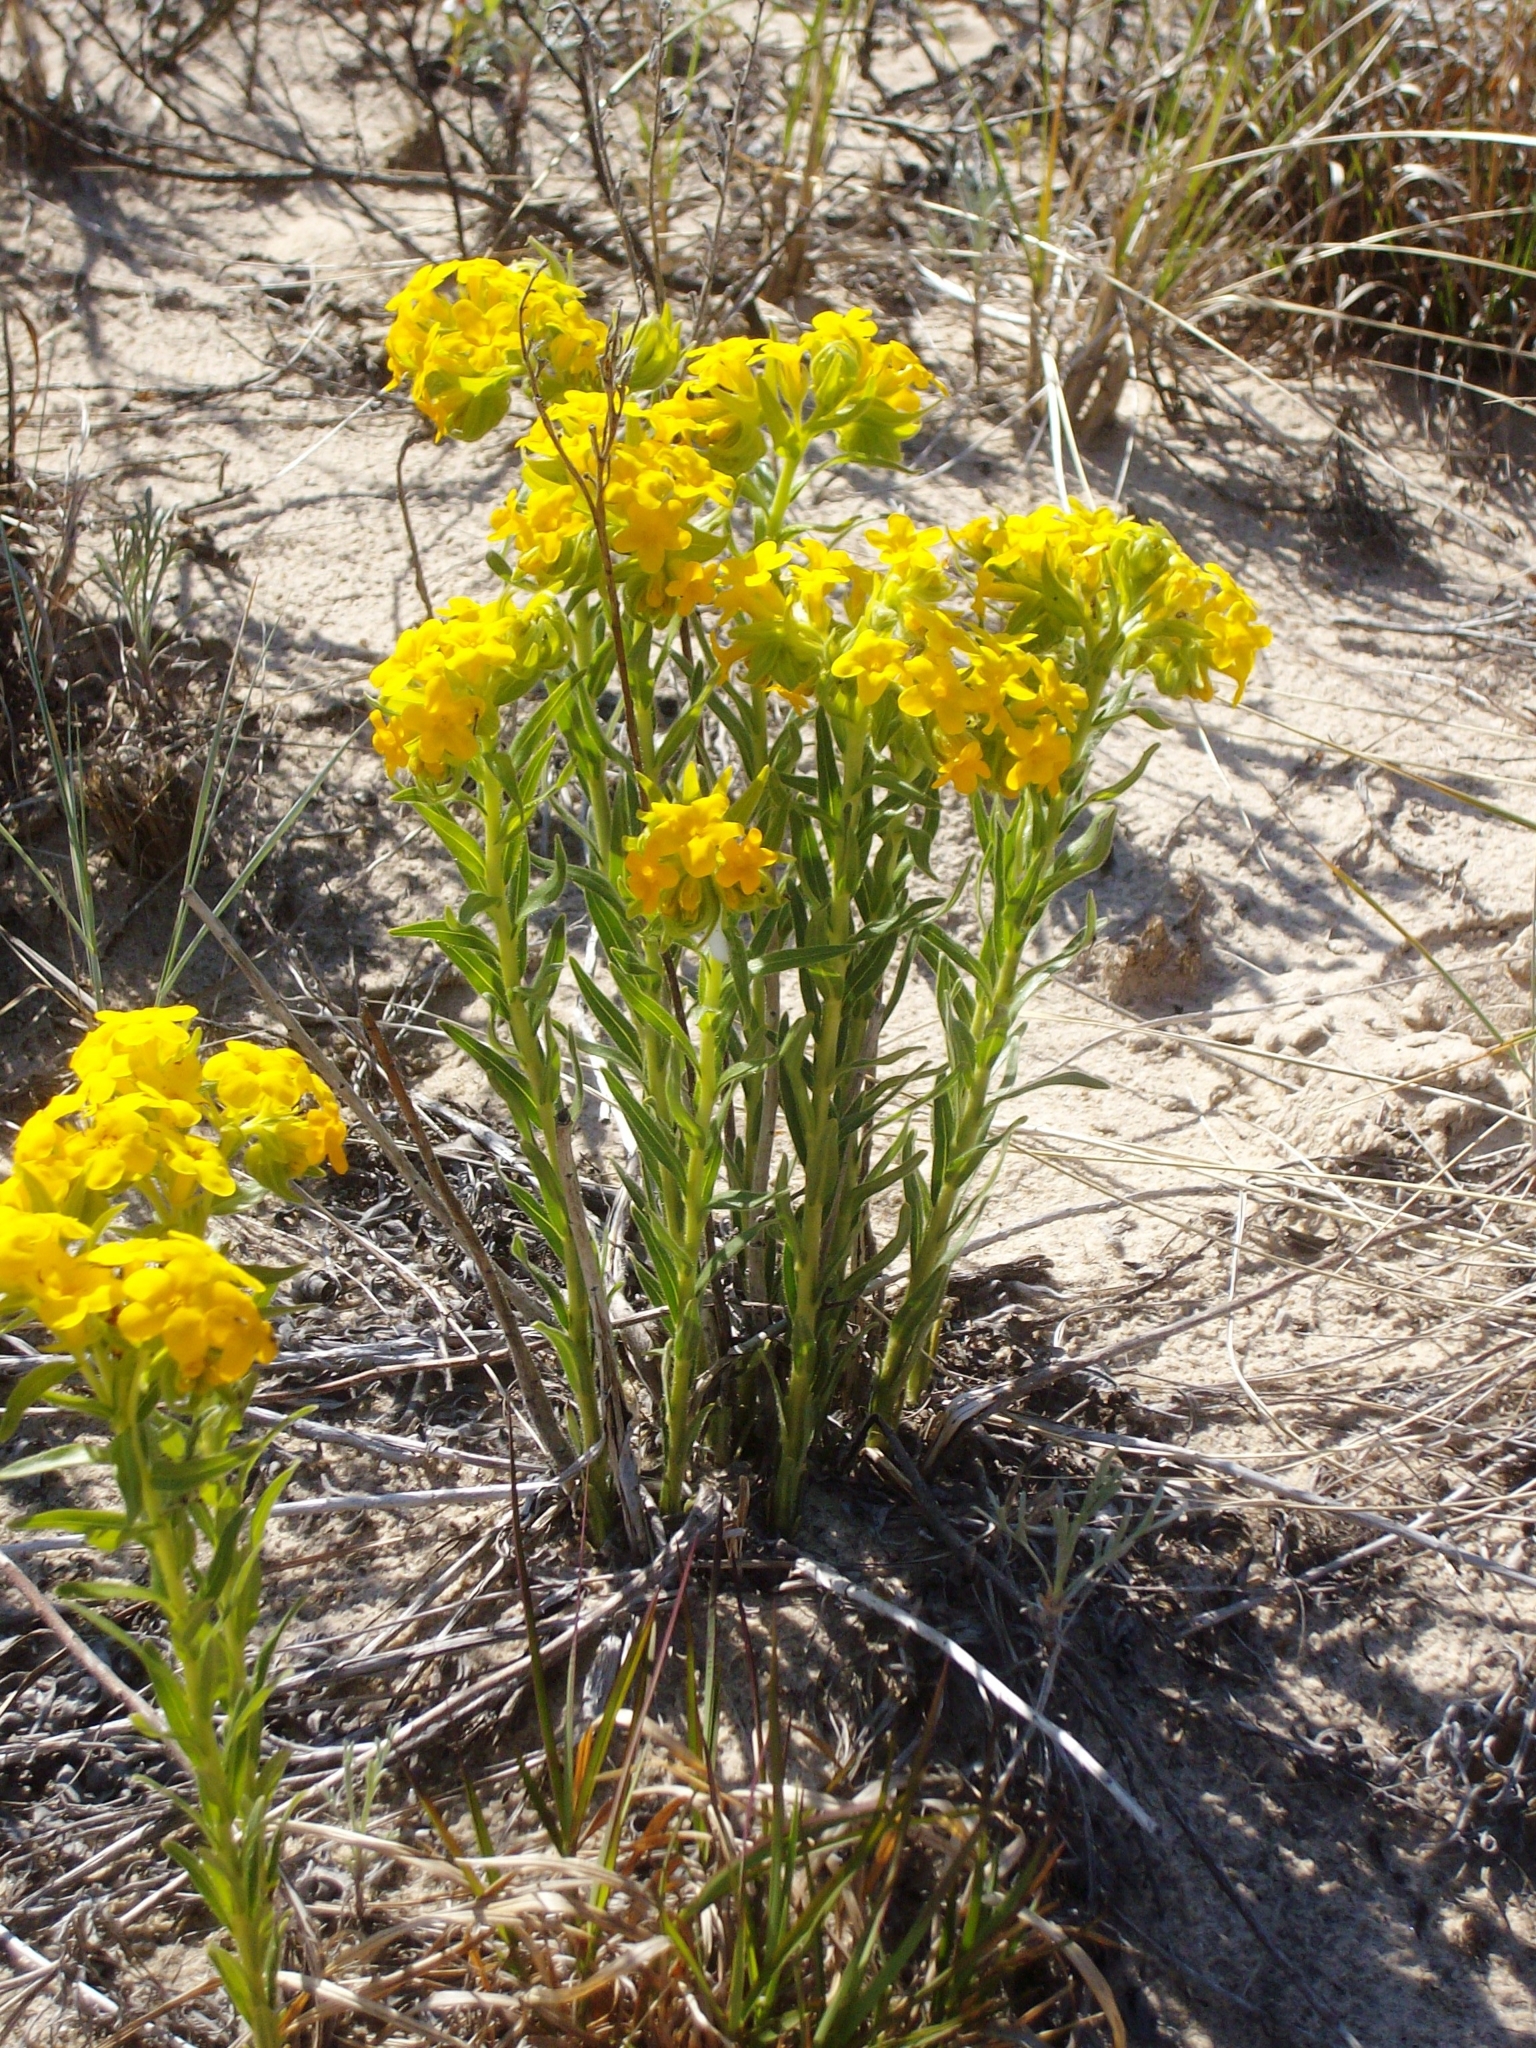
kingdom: Plantae
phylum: Tracheophyta
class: Magnoliopsida
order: Boraginales
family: Boraginaceae
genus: Lithospermum
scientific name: Lithospermum caroliniense
